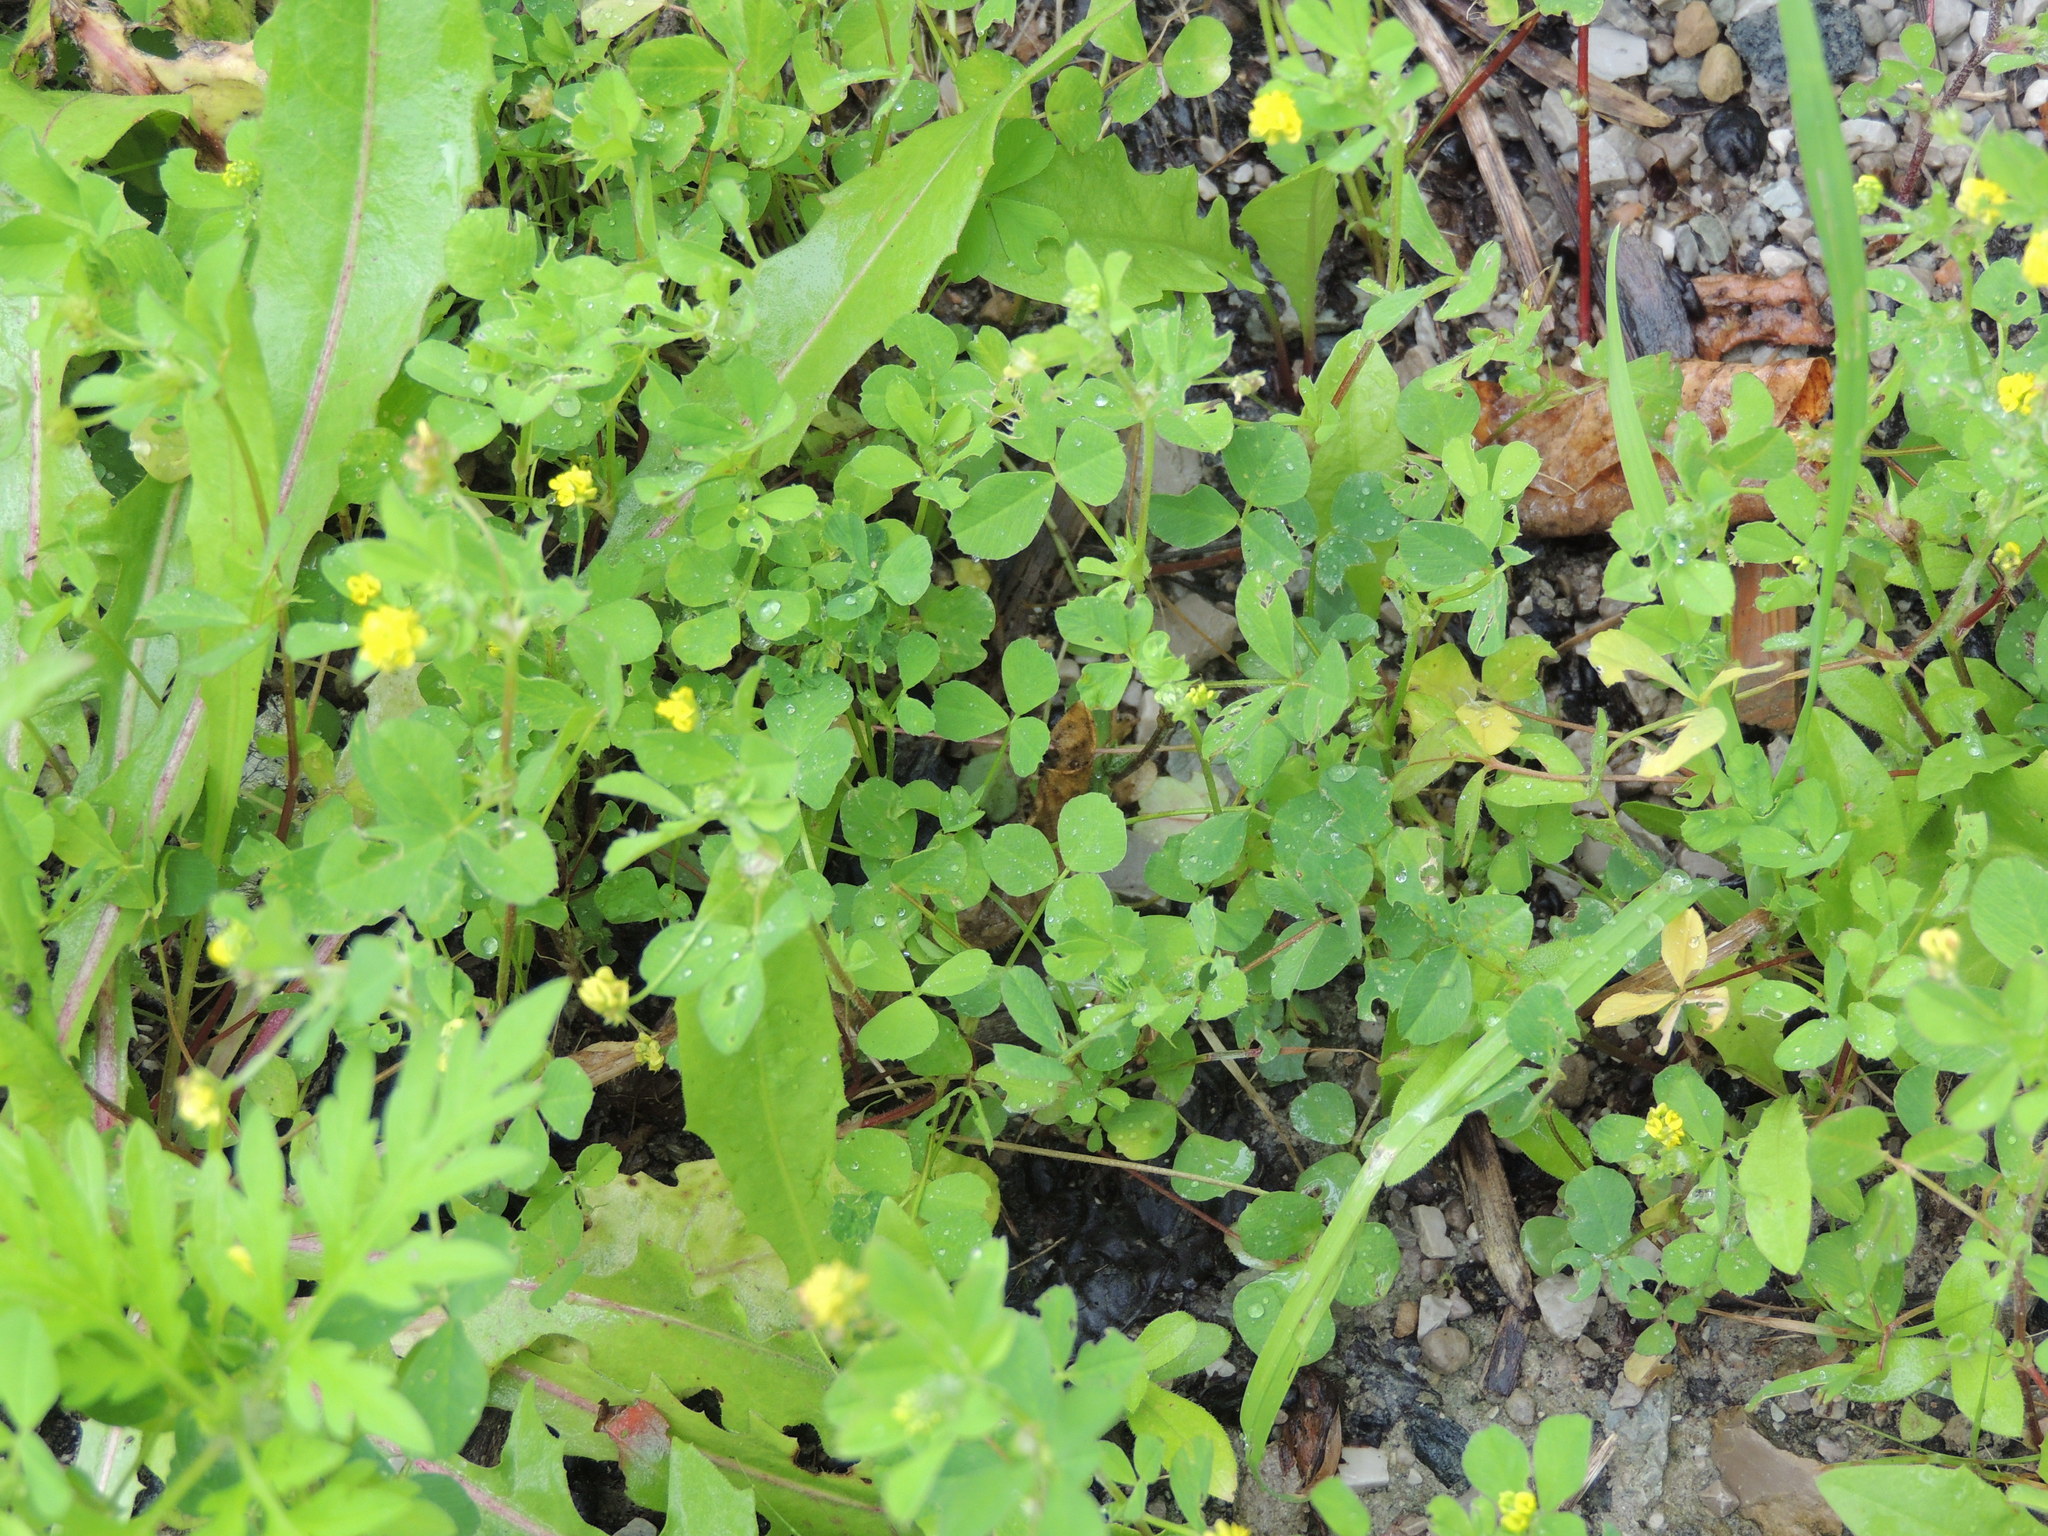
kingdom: Plantae
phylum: Tracheophyta
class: Magnoliopsida
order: Fabales
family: Fabaceae
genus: Medicago
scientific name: Medicago lupulina
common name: Black medick
